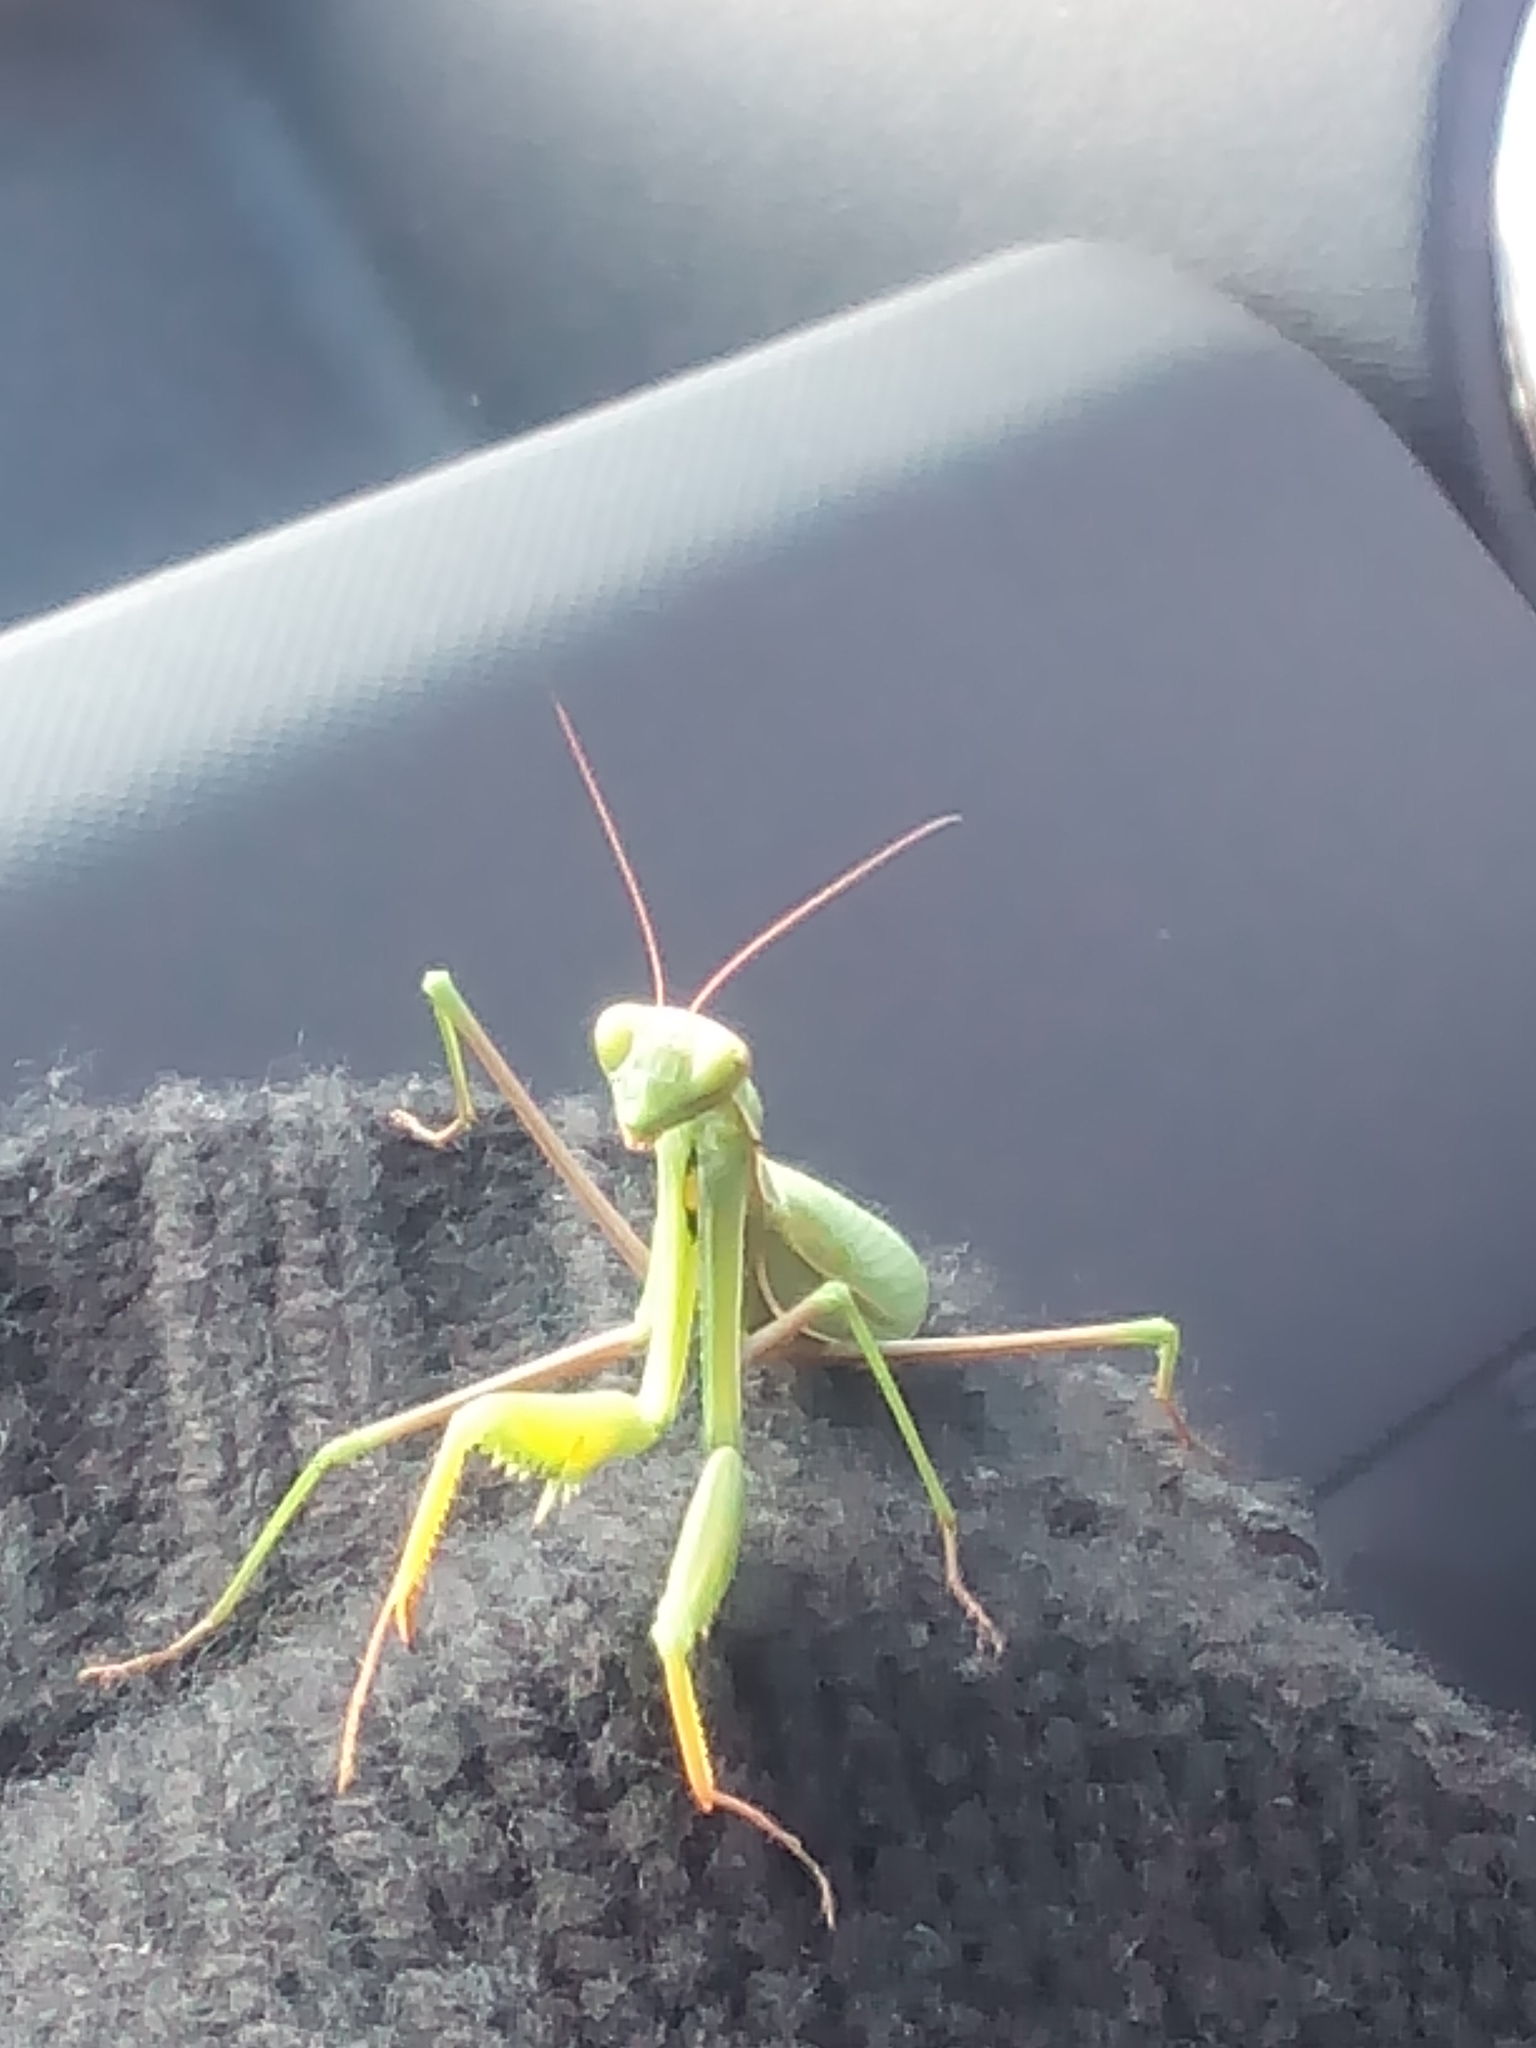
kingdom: Animalia
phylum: Arthropoda
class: Insecta
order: Mantodea
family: Mantidae
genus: Mantis
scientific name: Mantis religiosa
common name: Praying mantis
